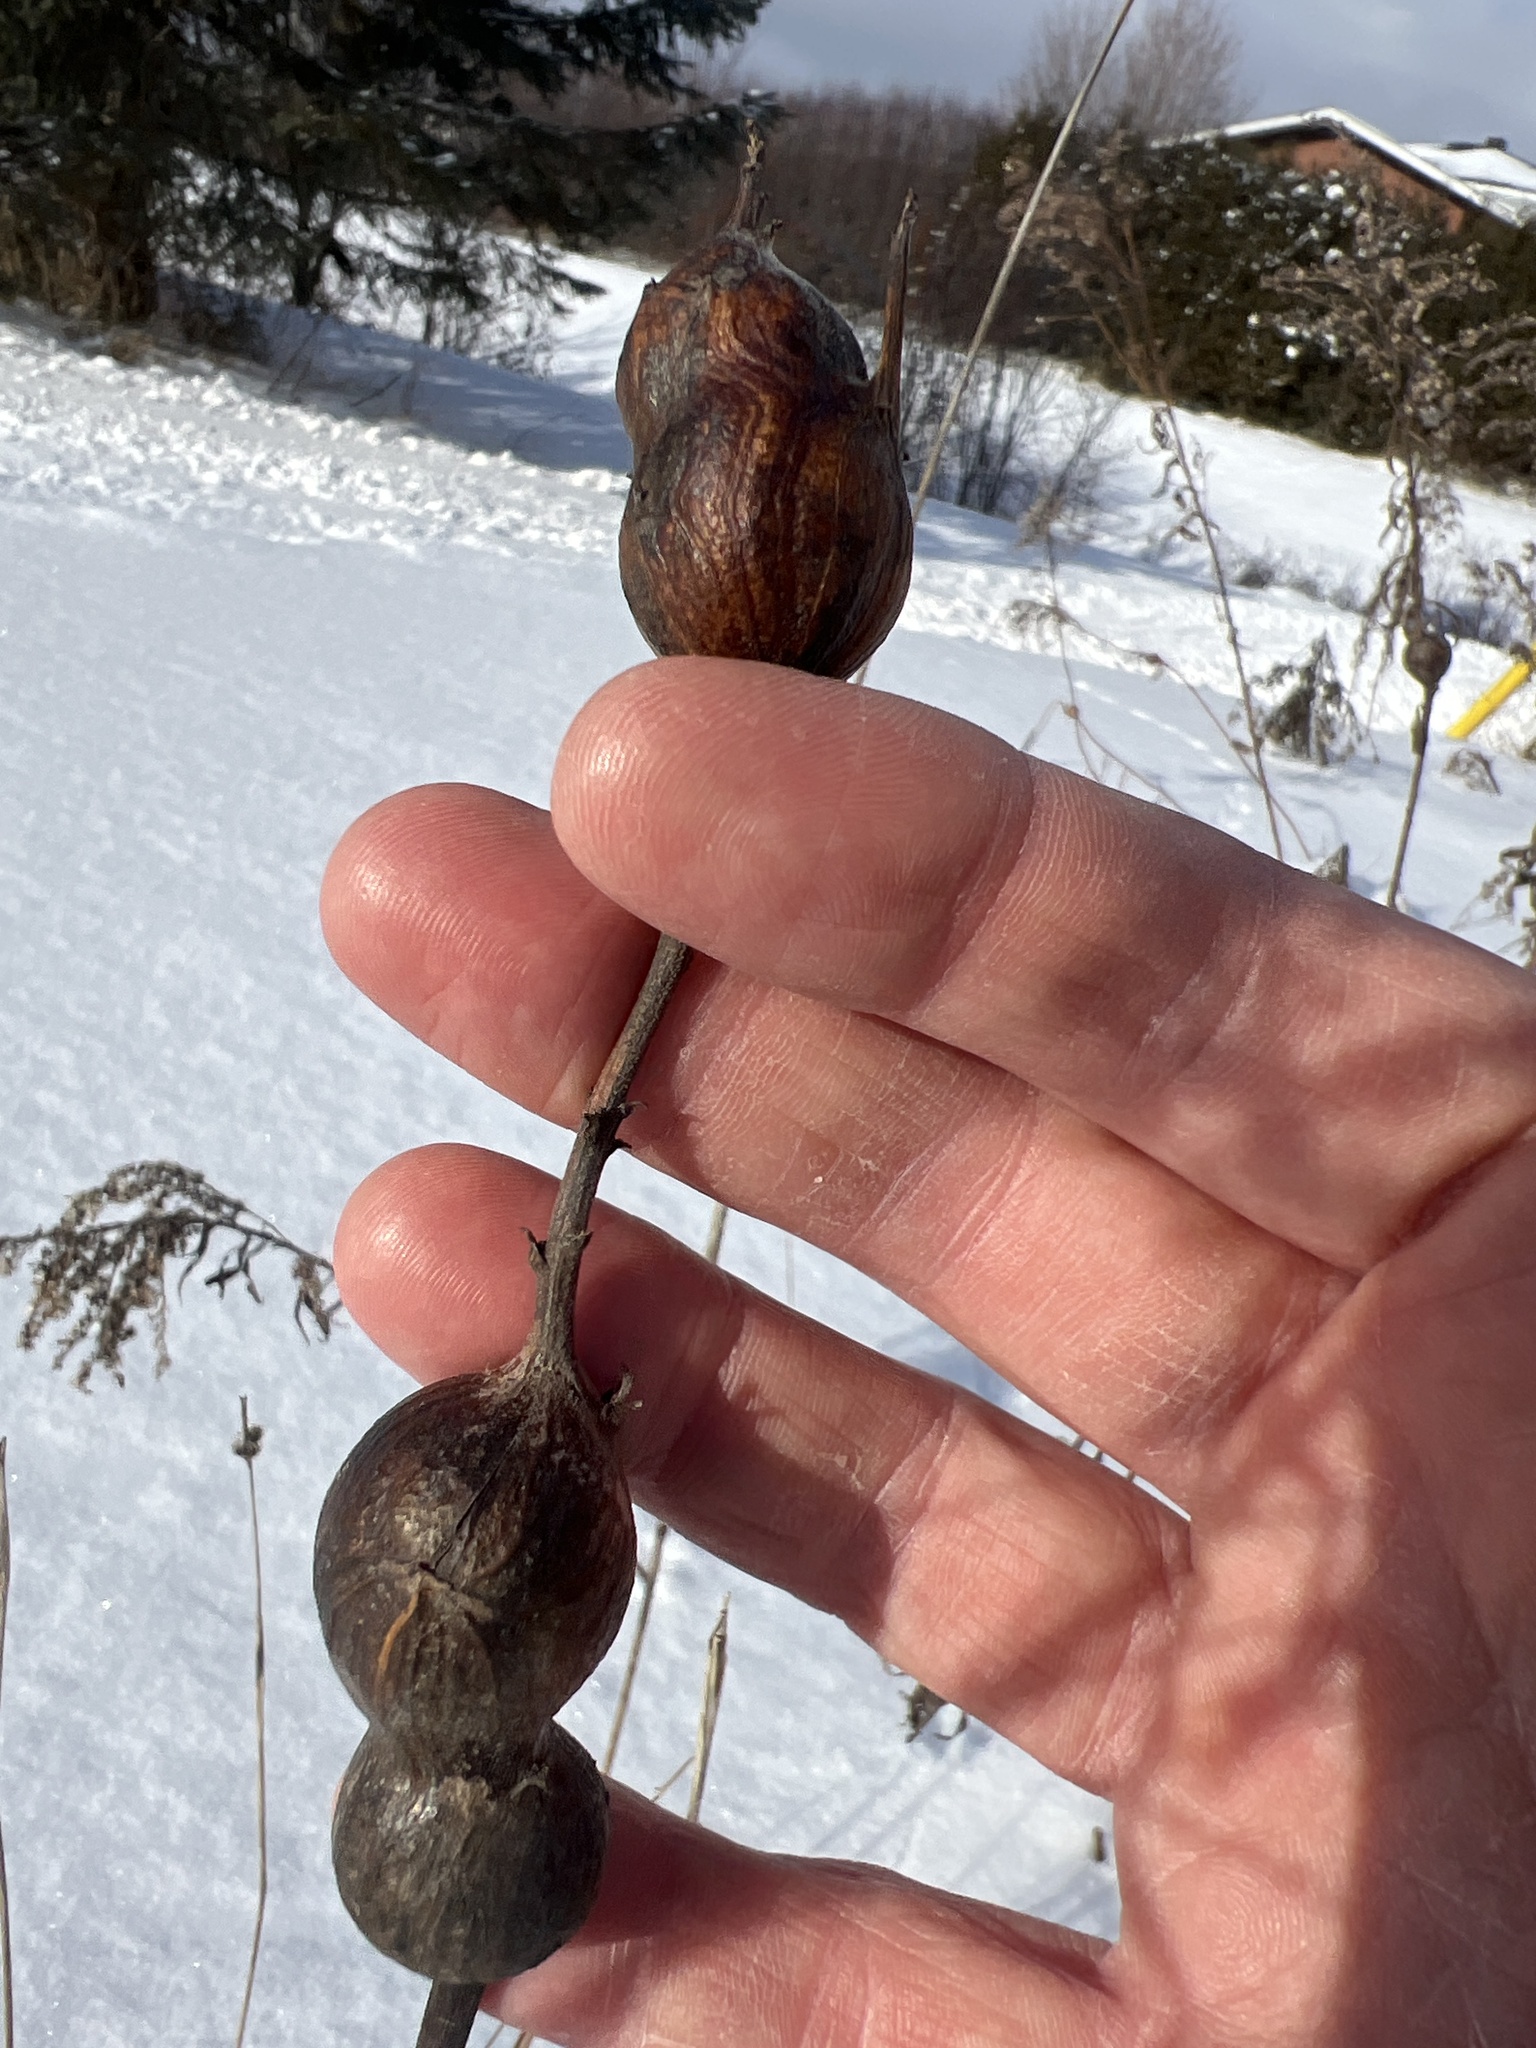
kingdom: Animalia
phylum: Arthropoda
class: Insecta
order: Diptera
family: Tephritidae
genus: Eurosta
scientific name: Eurosta solidaginis
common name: Goldenrod gall fly
